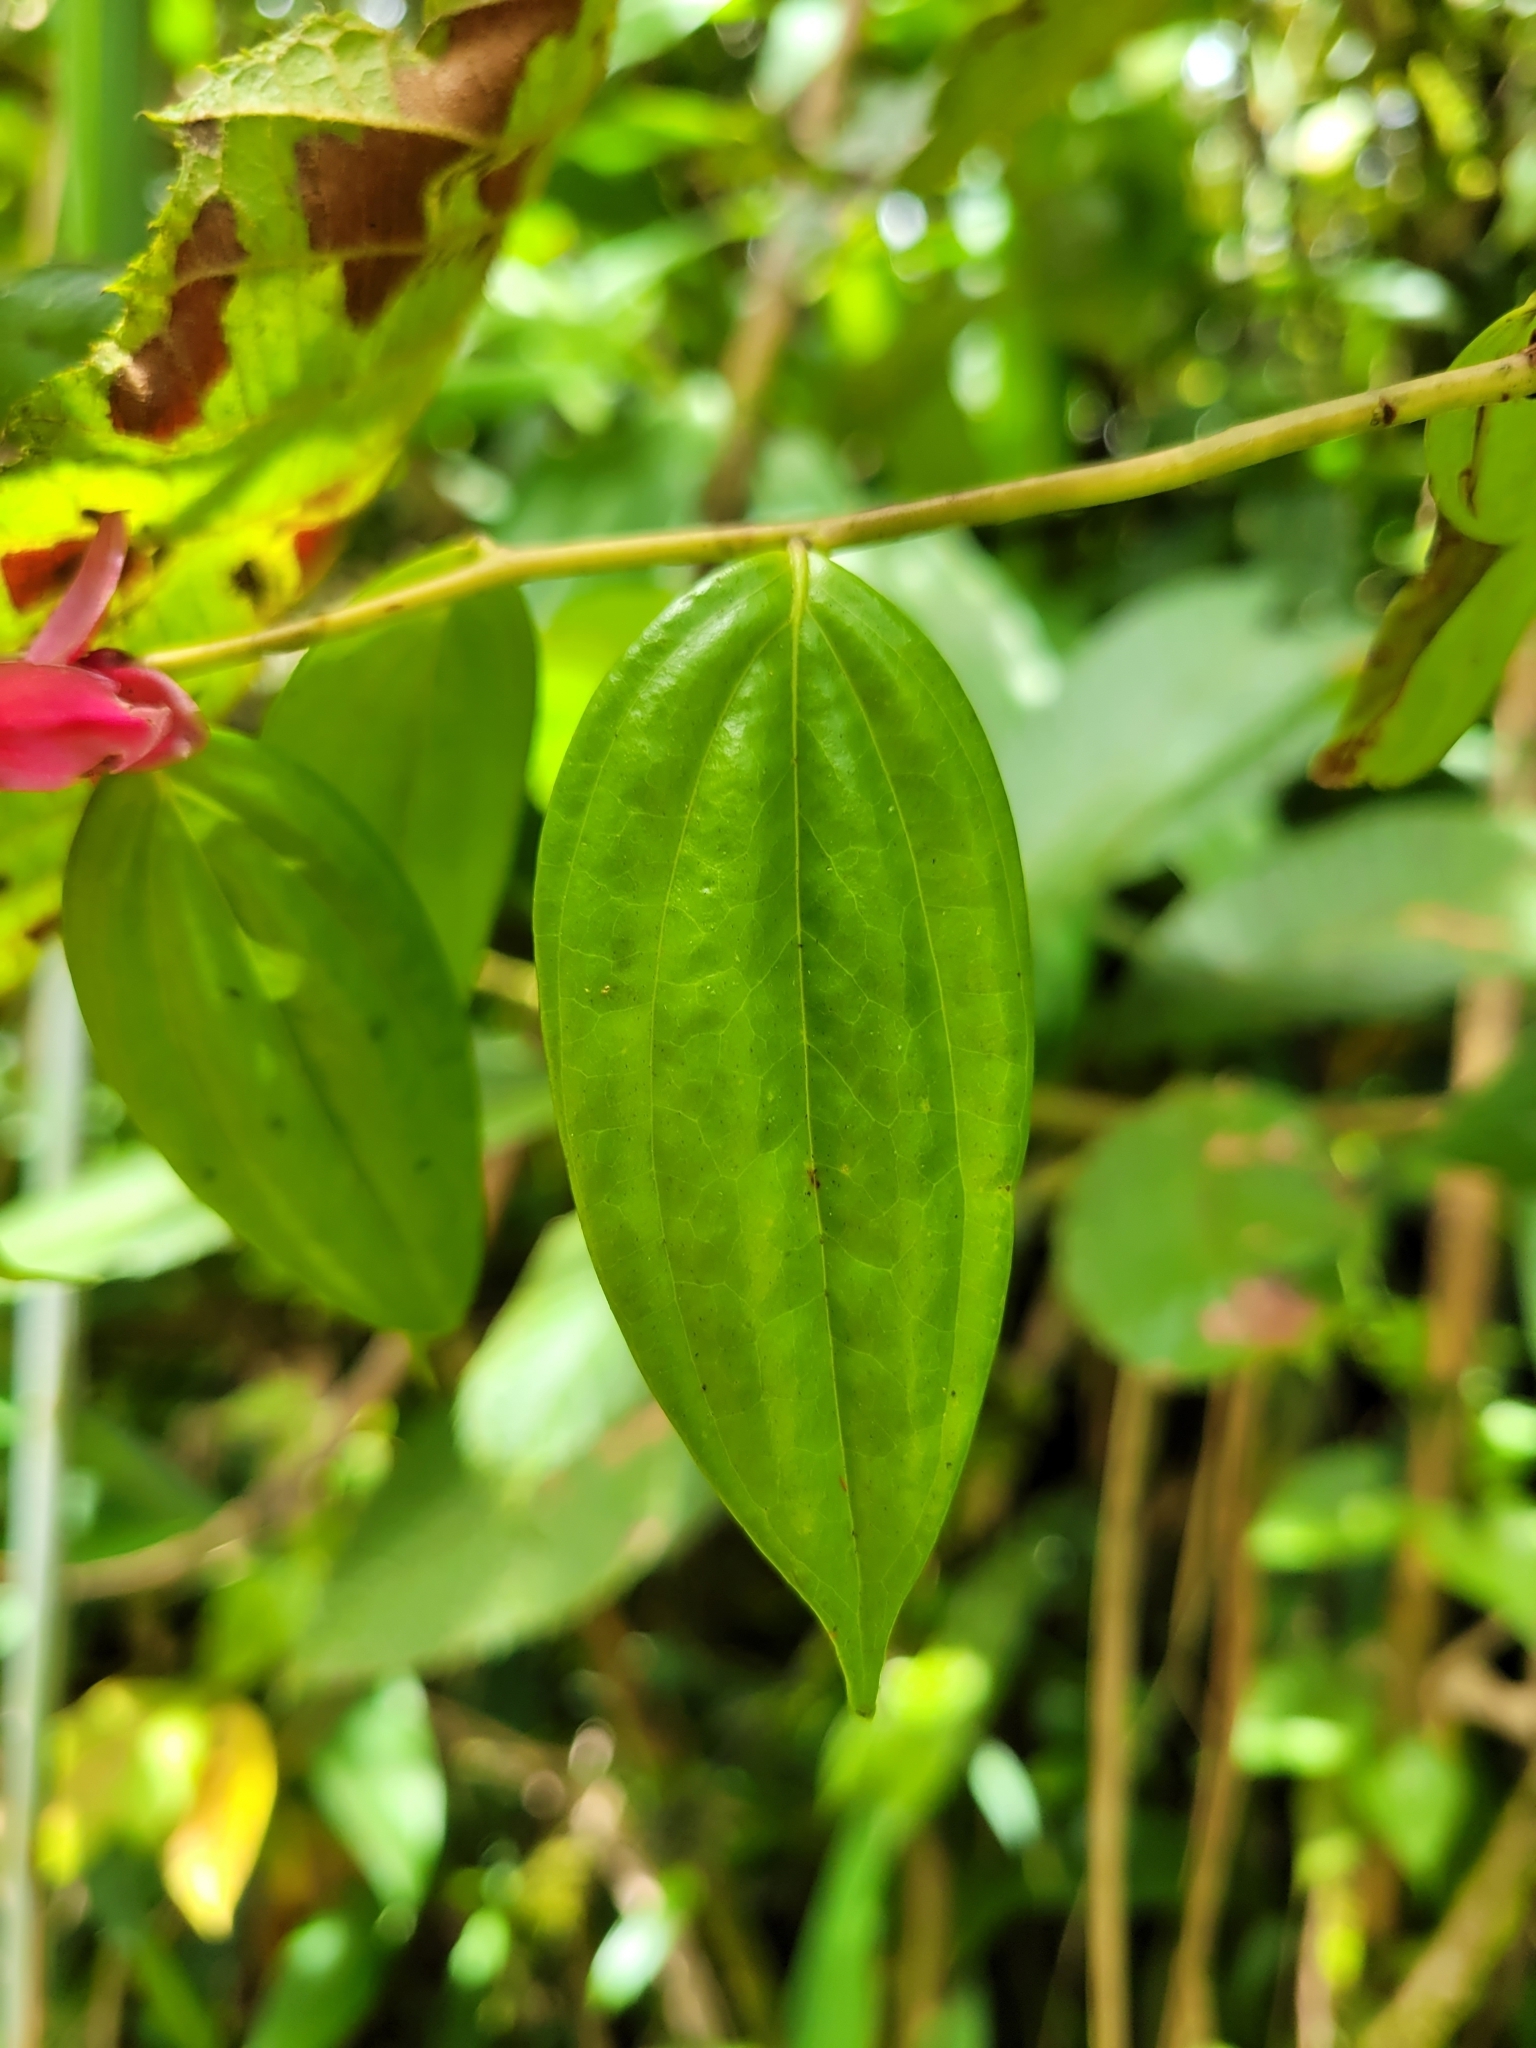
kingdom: Plantae
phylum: Tracheophyta
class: Magnoliopsida
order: Ericales
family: Ericaceae
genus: Cavendishia
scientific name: Cavendishia quereme
